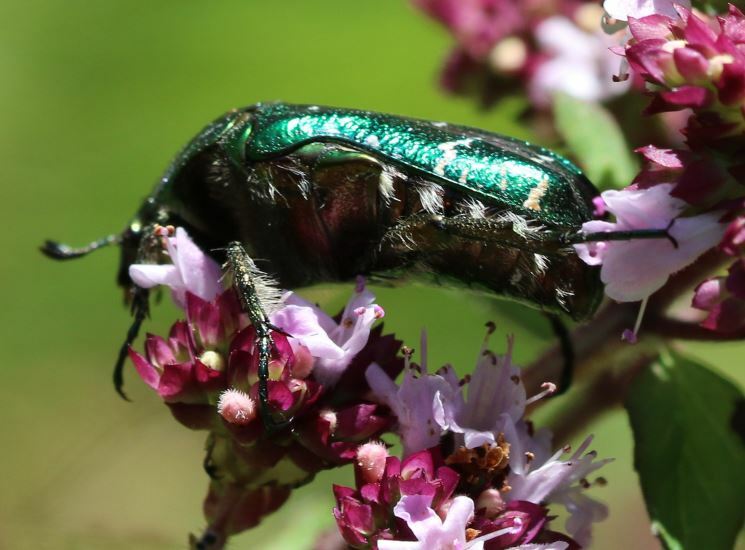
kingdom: Animalia
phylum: Arthropoda
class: Insecta
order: Coleoptera
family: Scarabaeidae
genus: Cetonia
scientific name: Cetonia aurata
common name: Rose chafer
